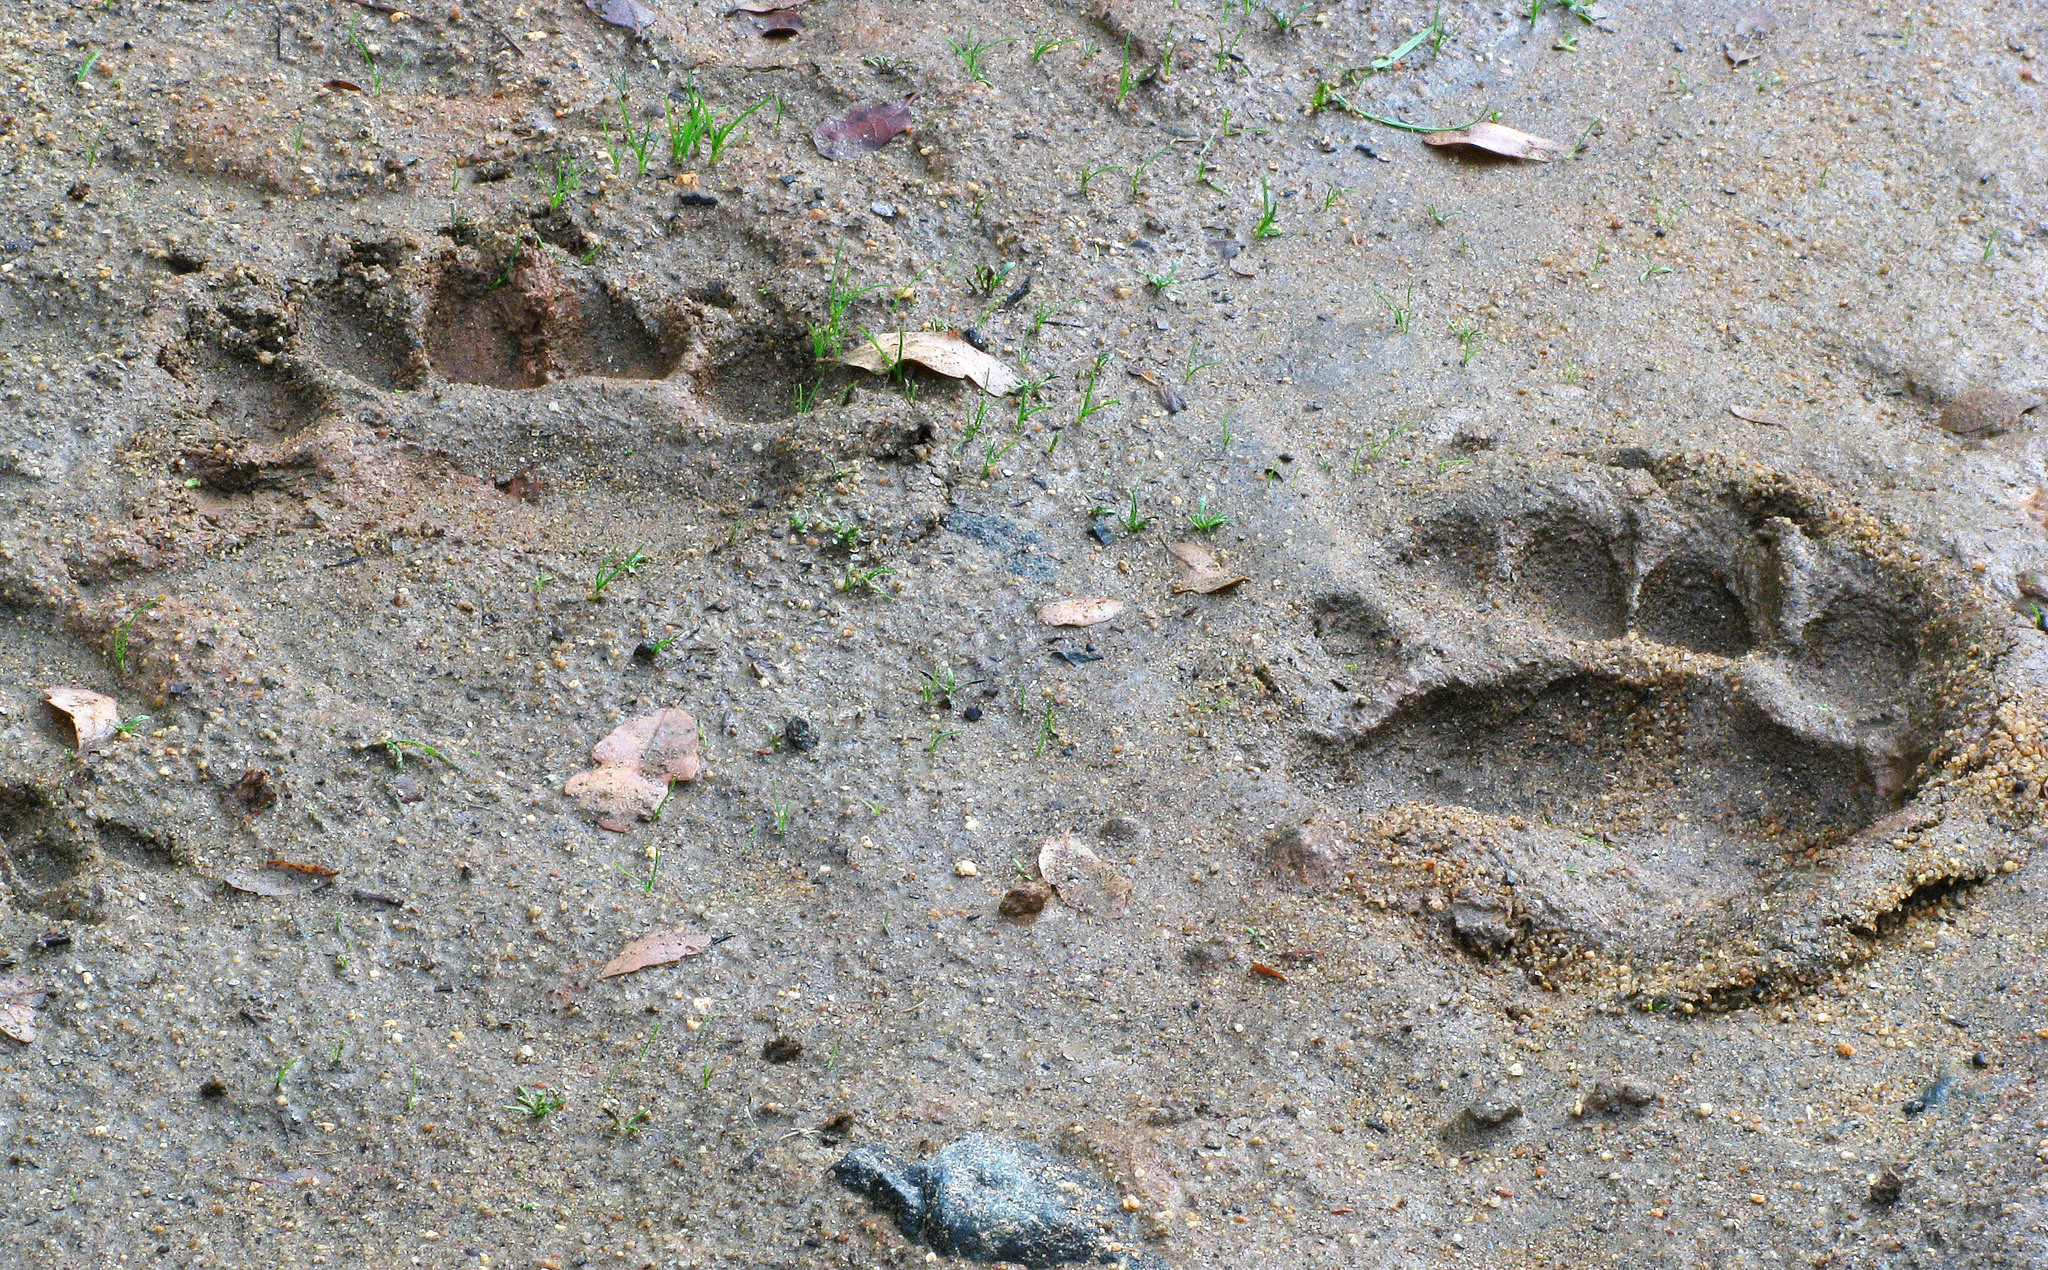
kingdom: Animalia
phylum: Chordata
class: Mammalia
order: Carnivora
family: Ursidae
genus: Ursus
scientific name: Ursus americanus
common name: American black bear
